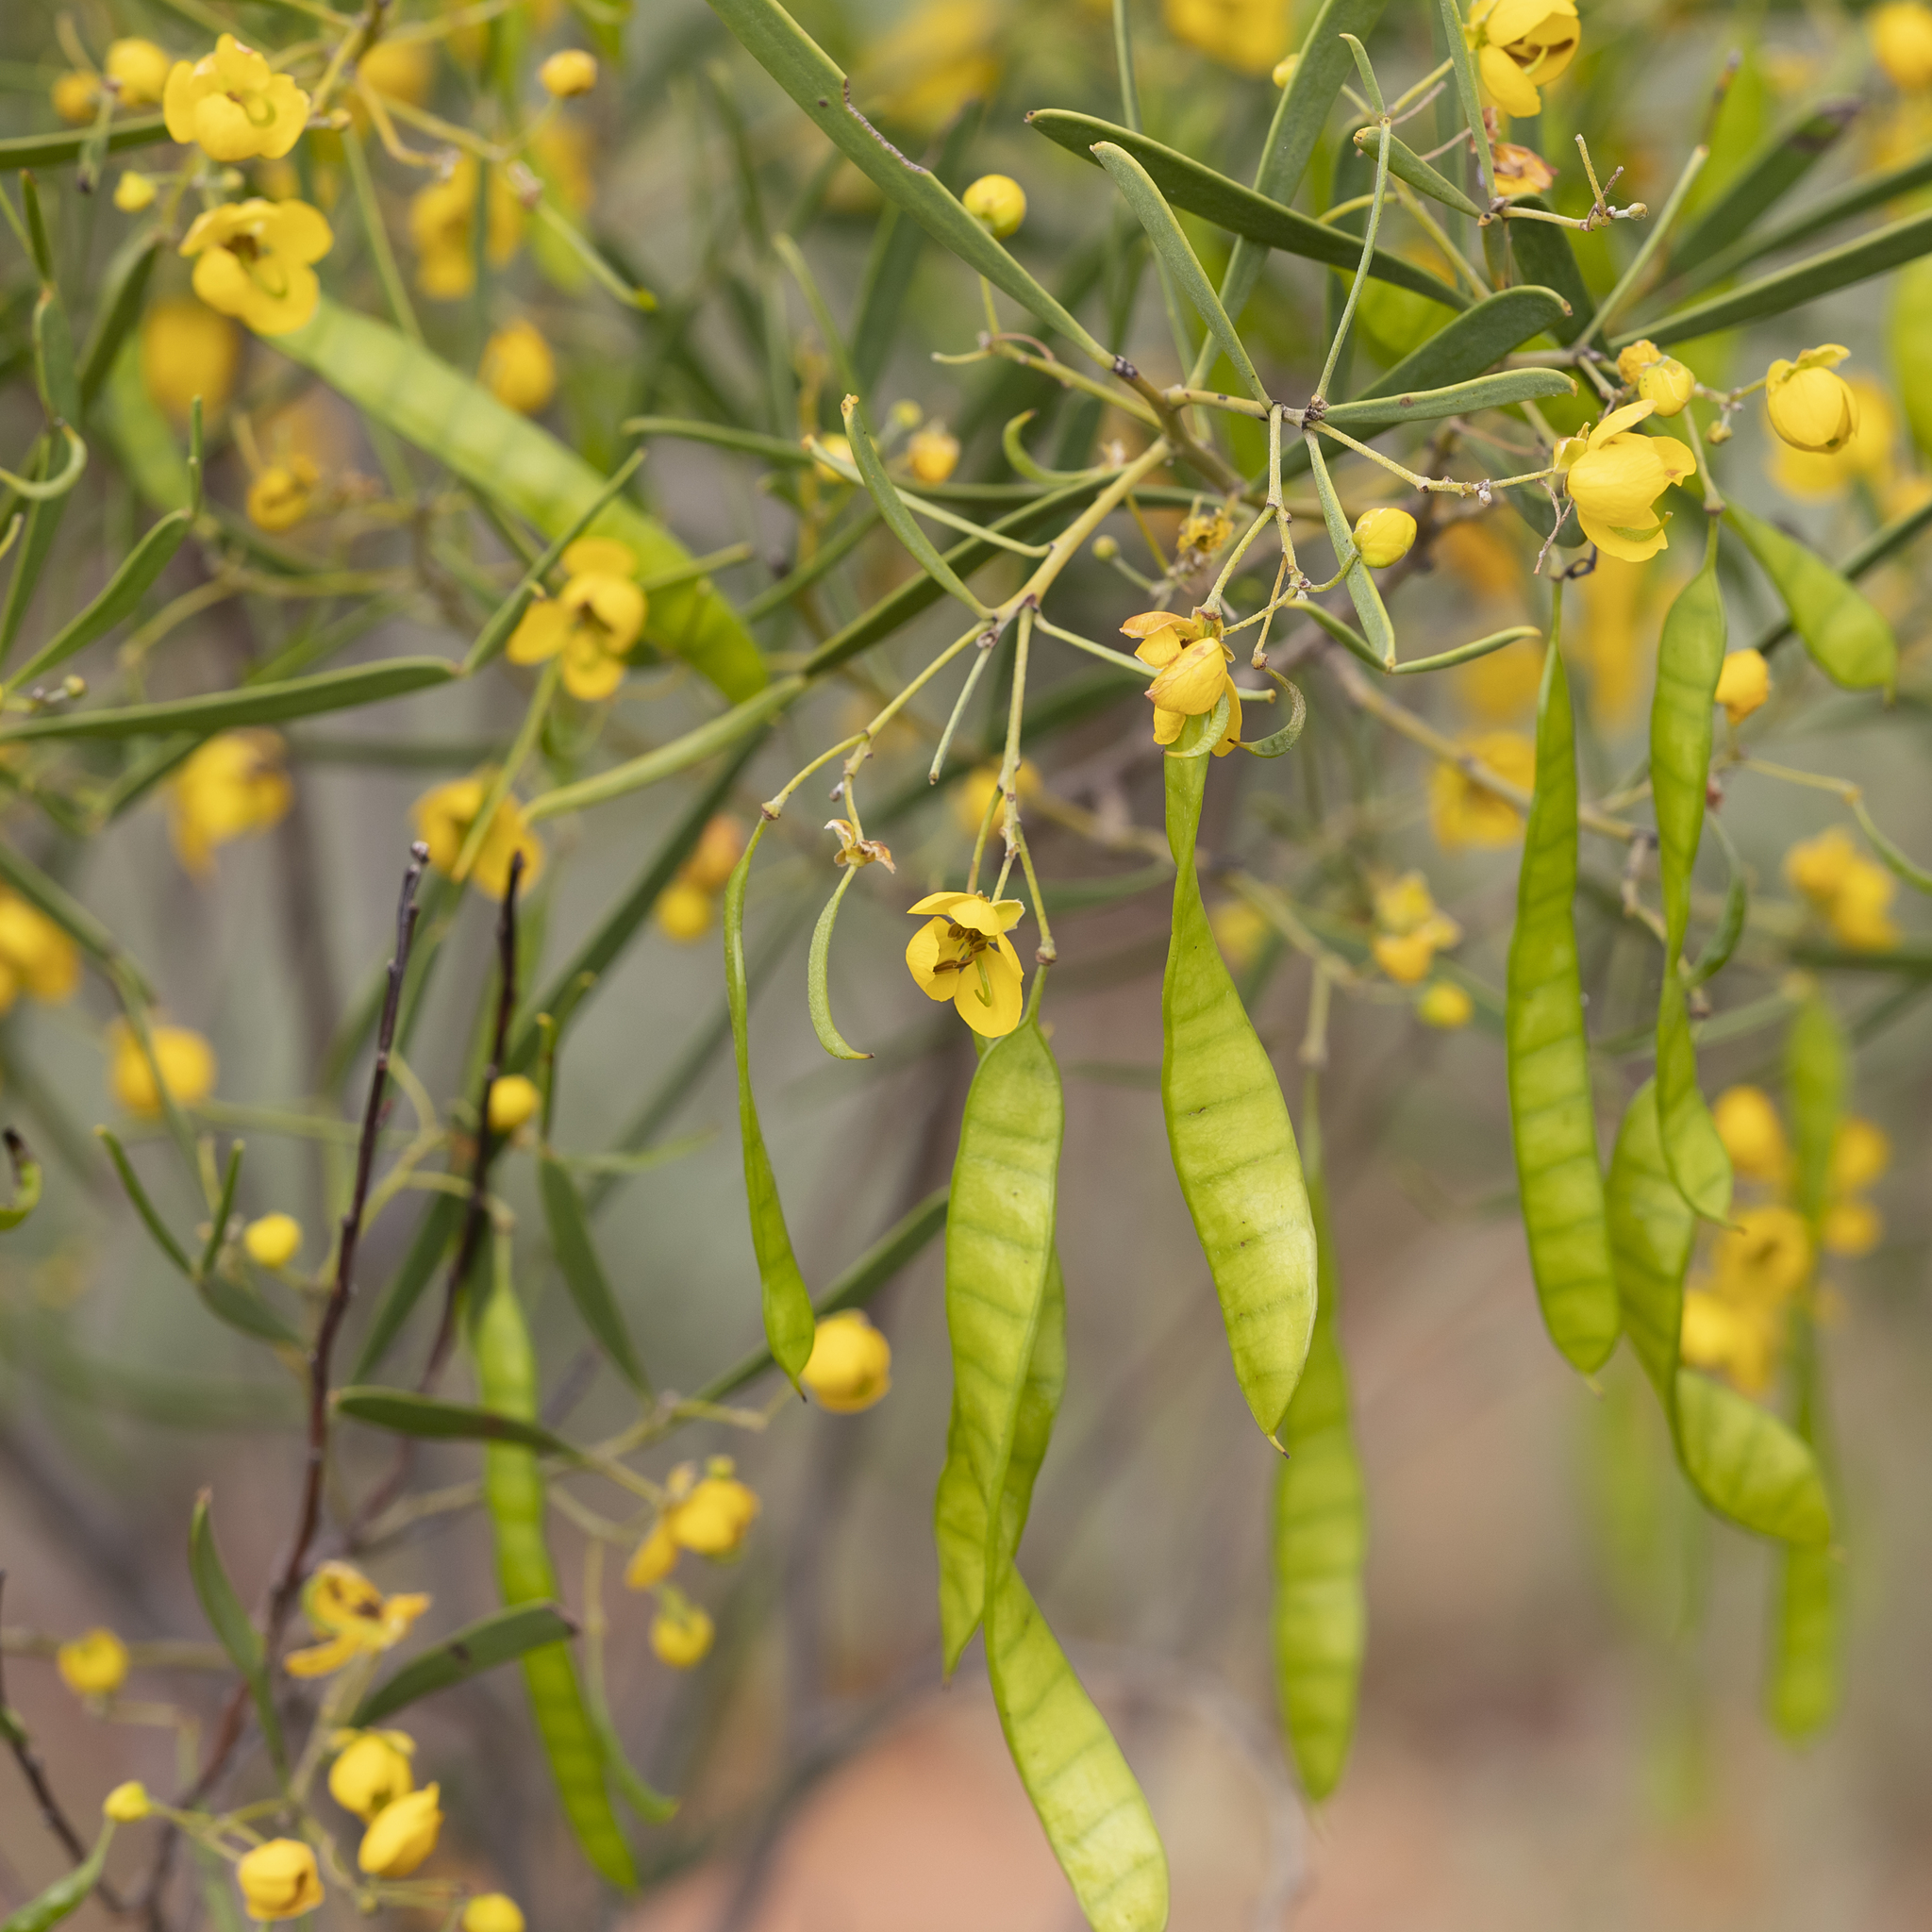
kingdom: Plantae
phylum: Tracheophyta
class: Magnoliopsida
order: Fabales
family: Fabaceae
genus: Senna
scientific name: Senna artemisioides
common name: Burnt-leaved acacia
